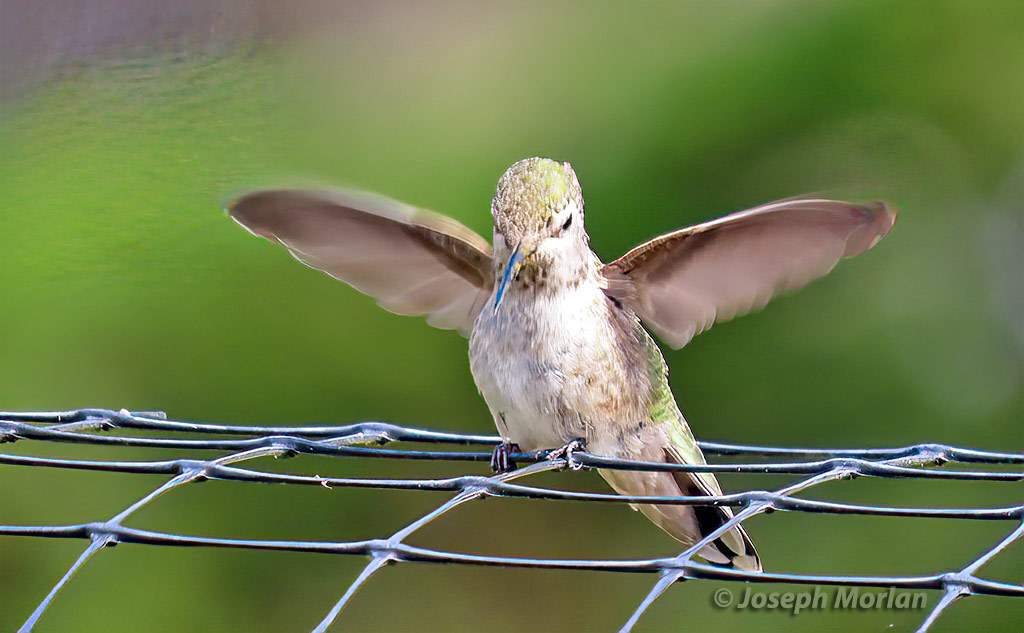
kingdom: Animalia
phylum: Chordata
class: Aves
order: Apodiformes
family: Trochilidae
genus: Calypte
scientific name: Calypte anna
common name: Anna's hummingbird
